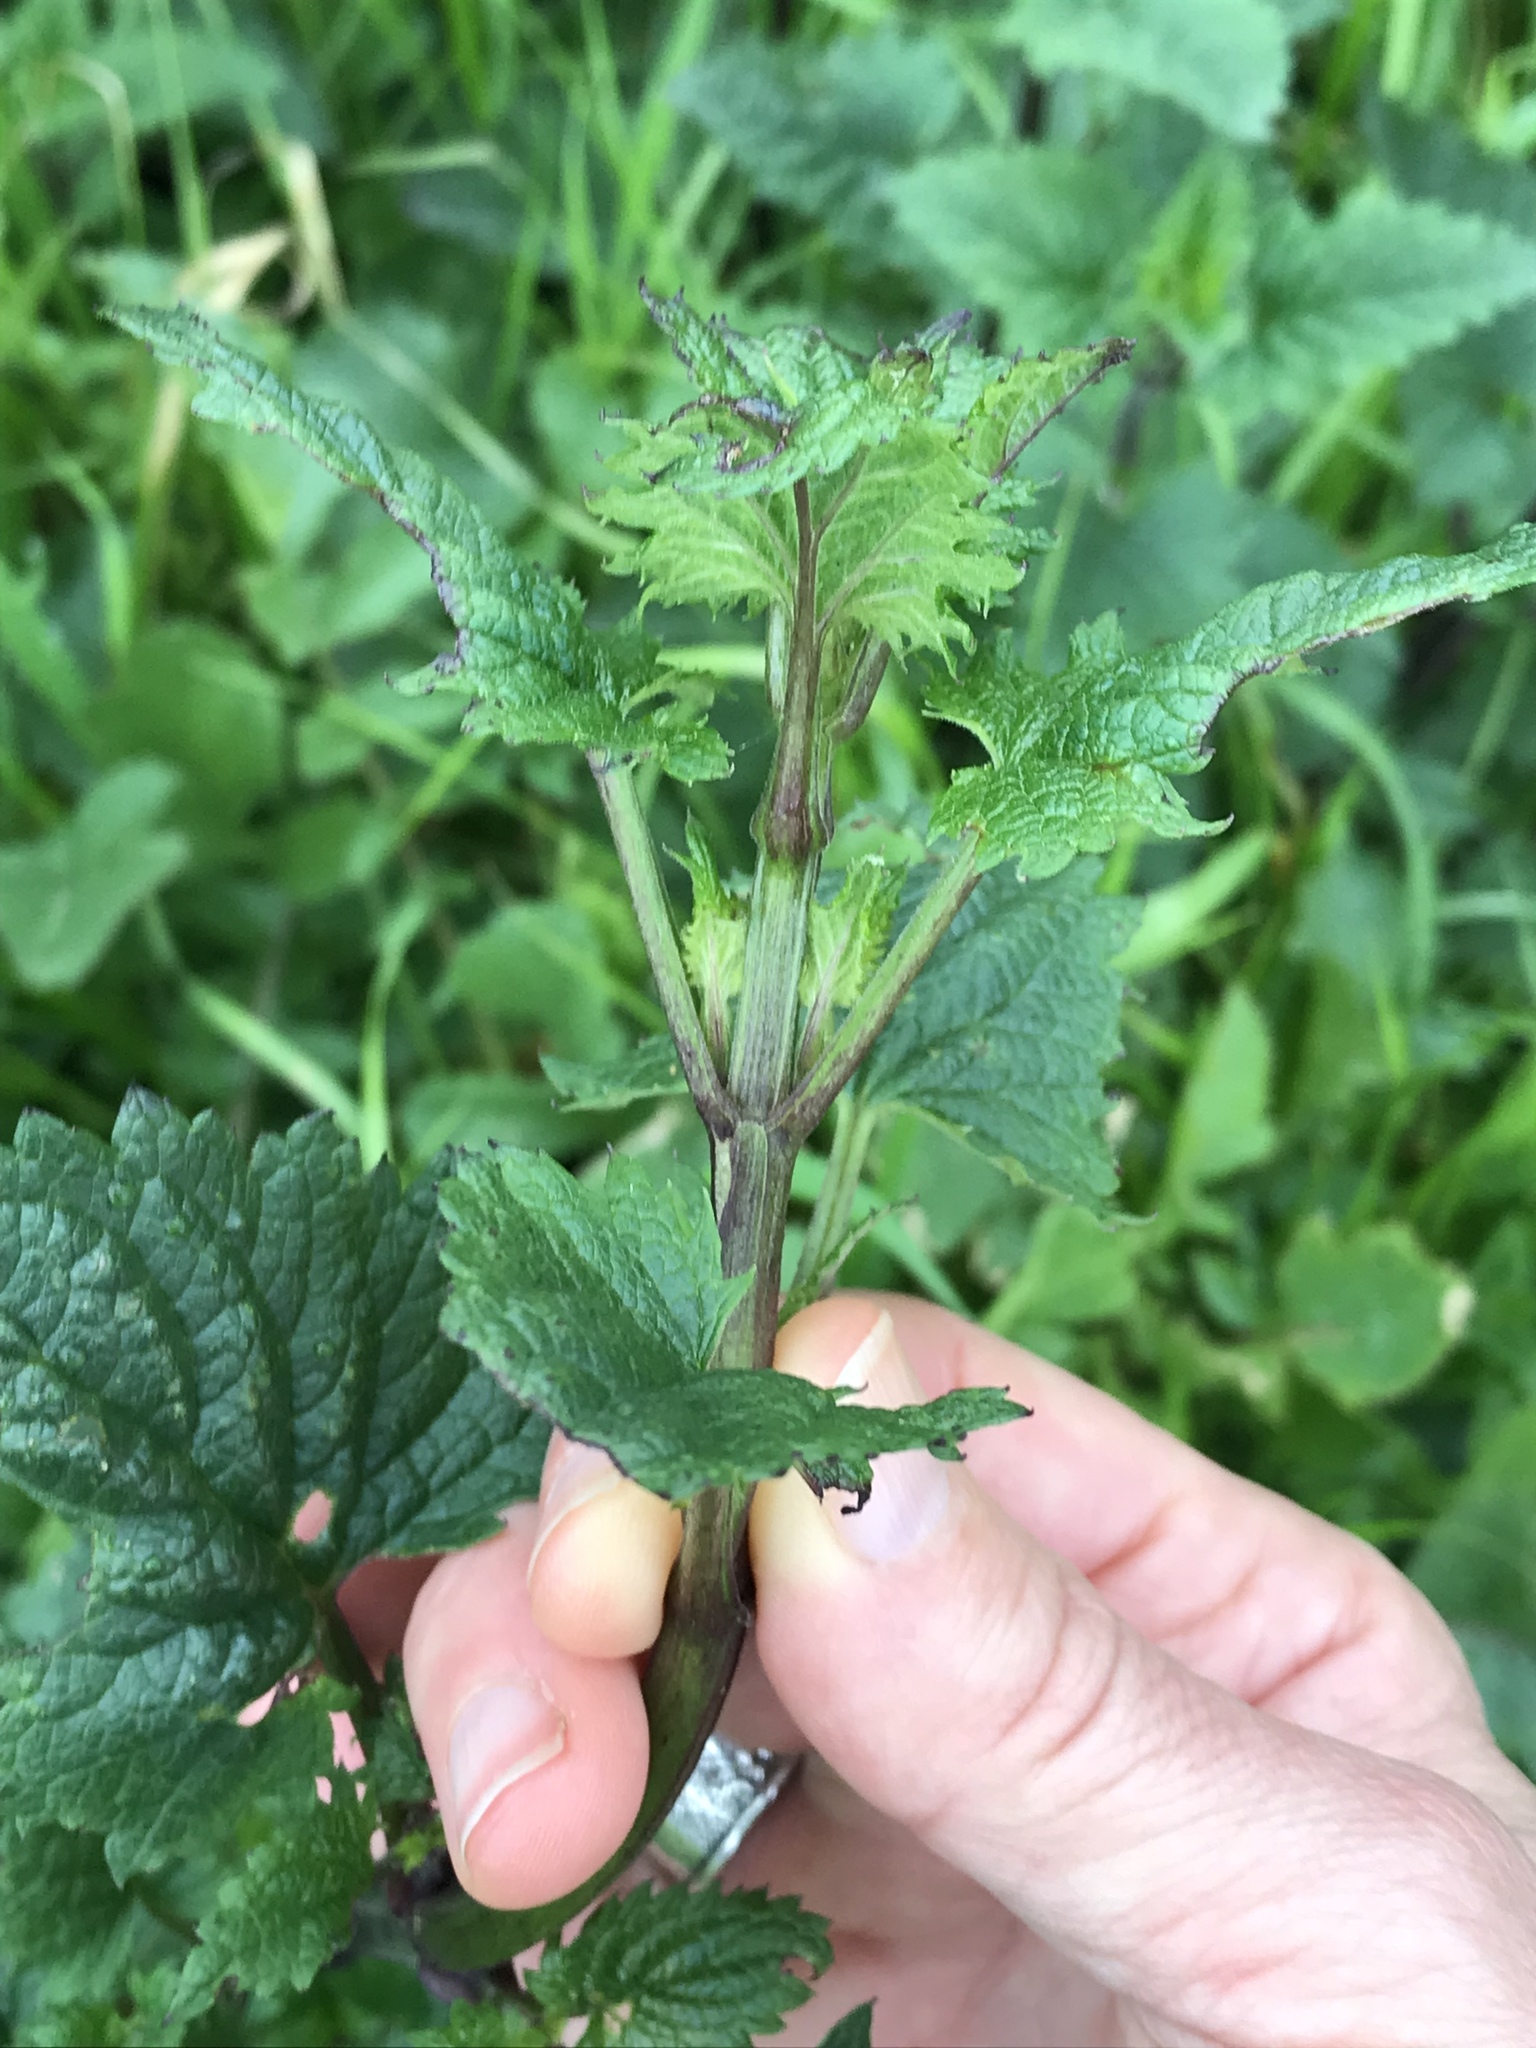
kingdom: Plantae
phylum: Tracheophyta
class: Magnoliopsida
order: Lamiales
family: Scrophulariaceae
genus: Scrophularia
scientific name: Scrophularia californica
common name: California figwort
